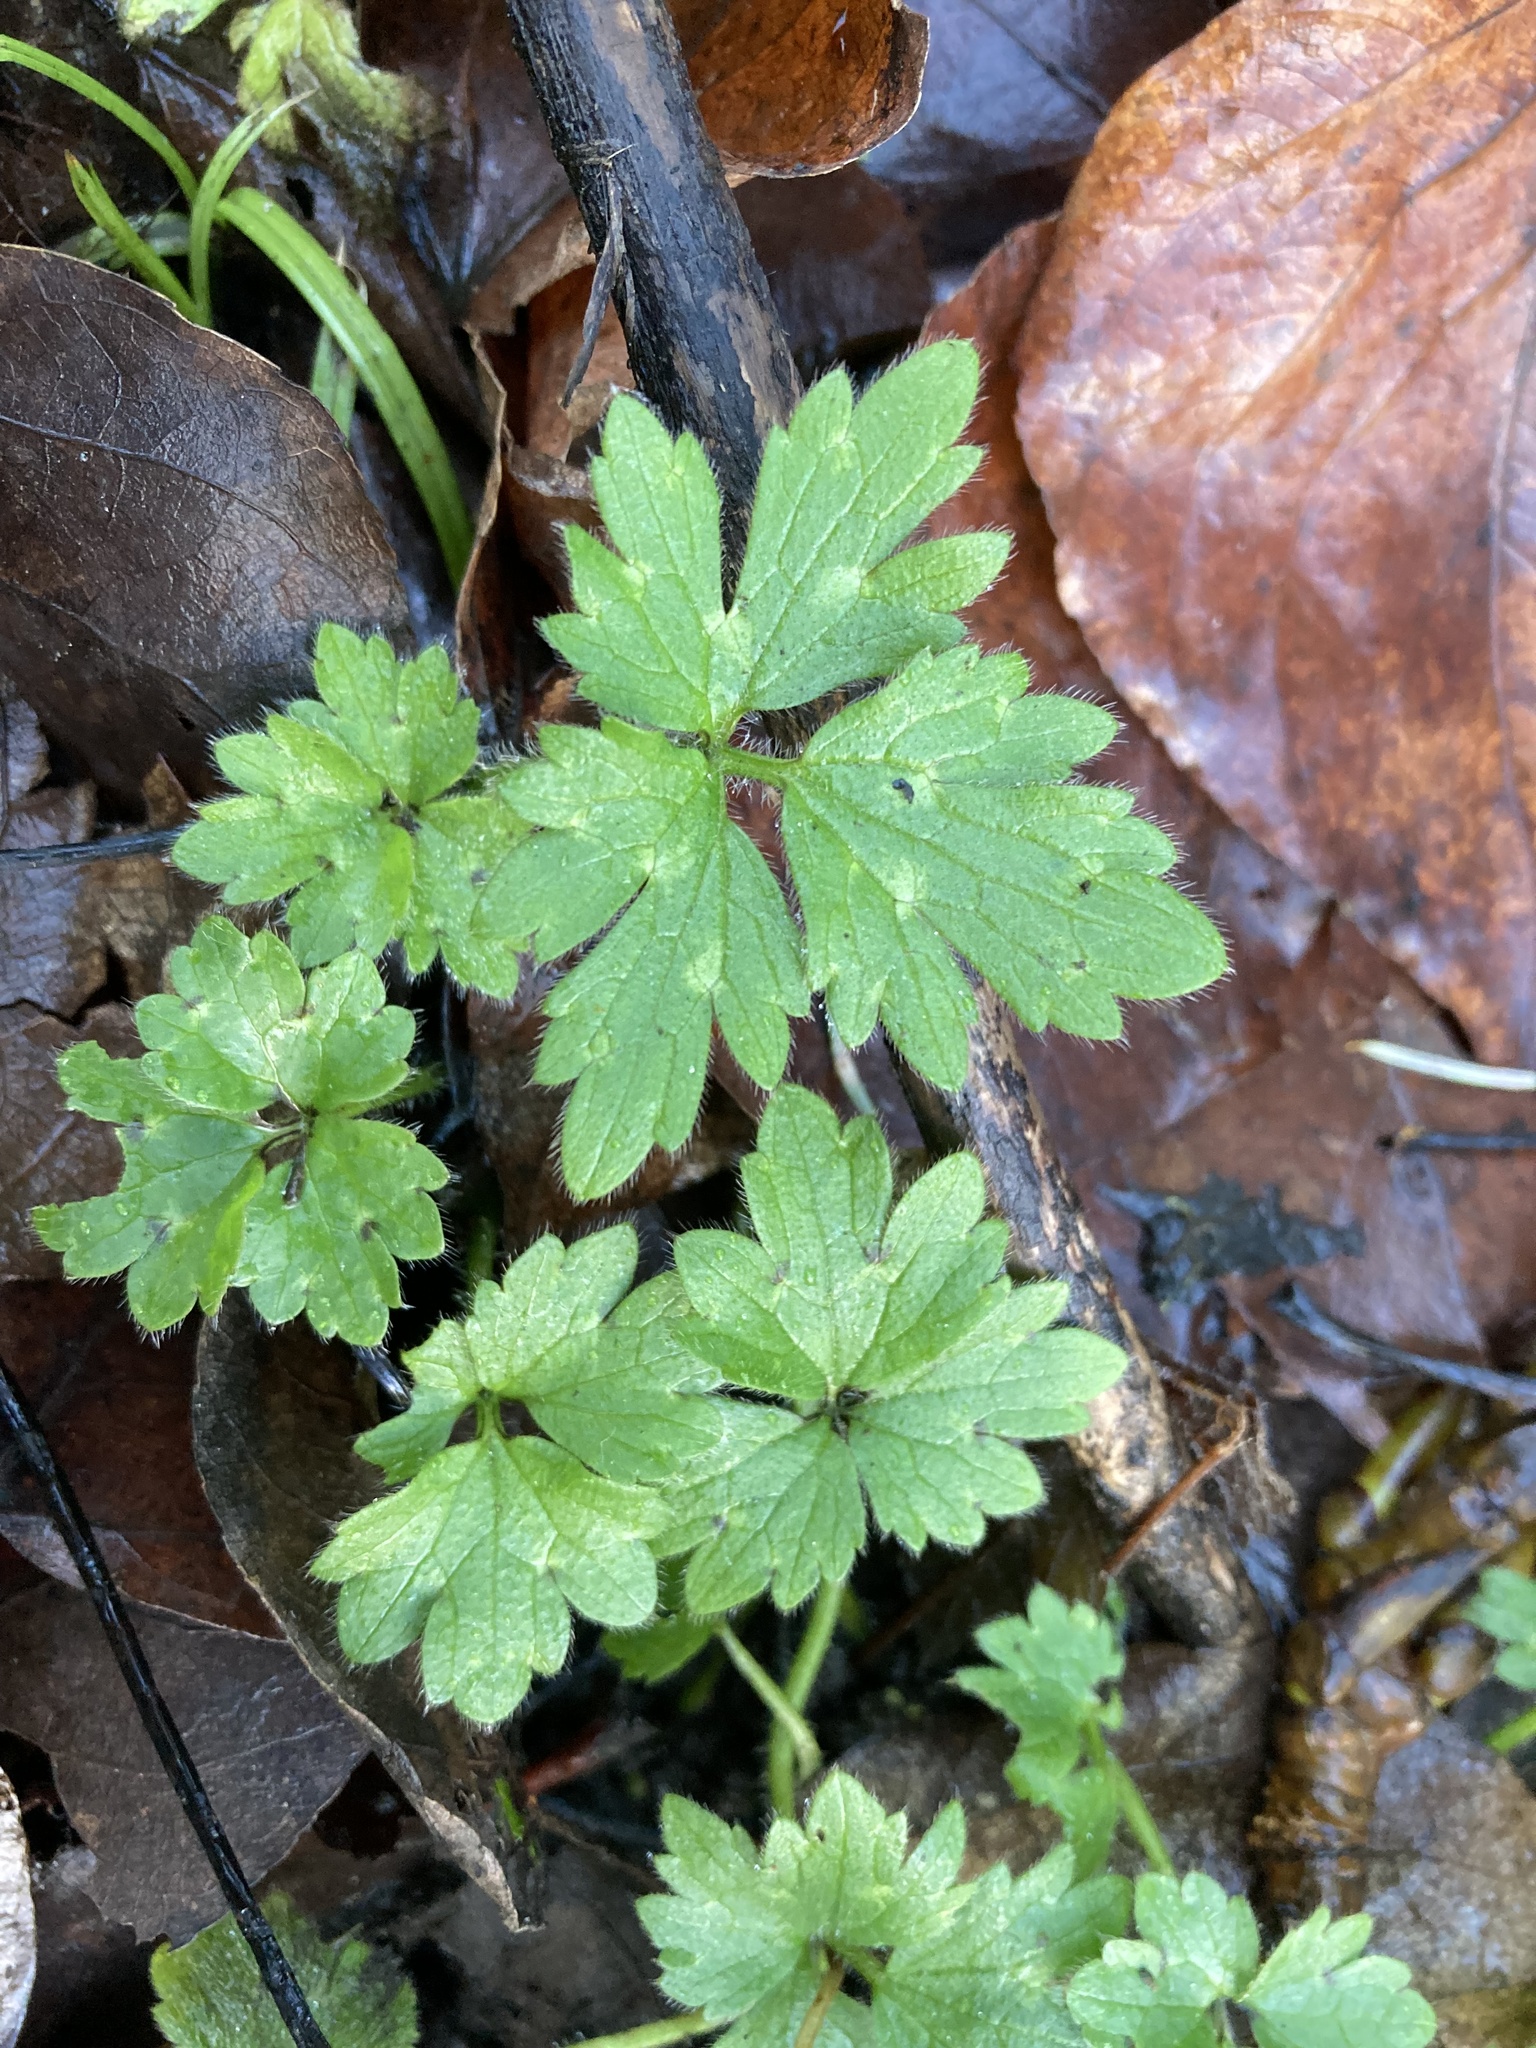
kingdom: Plantae
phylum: Tracheophyta
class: Magnoliopsida
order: Ranunculales
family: Ranunculaceae
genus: Ranunculus
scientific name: Ranunculus repens
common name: Creeping buttercup
